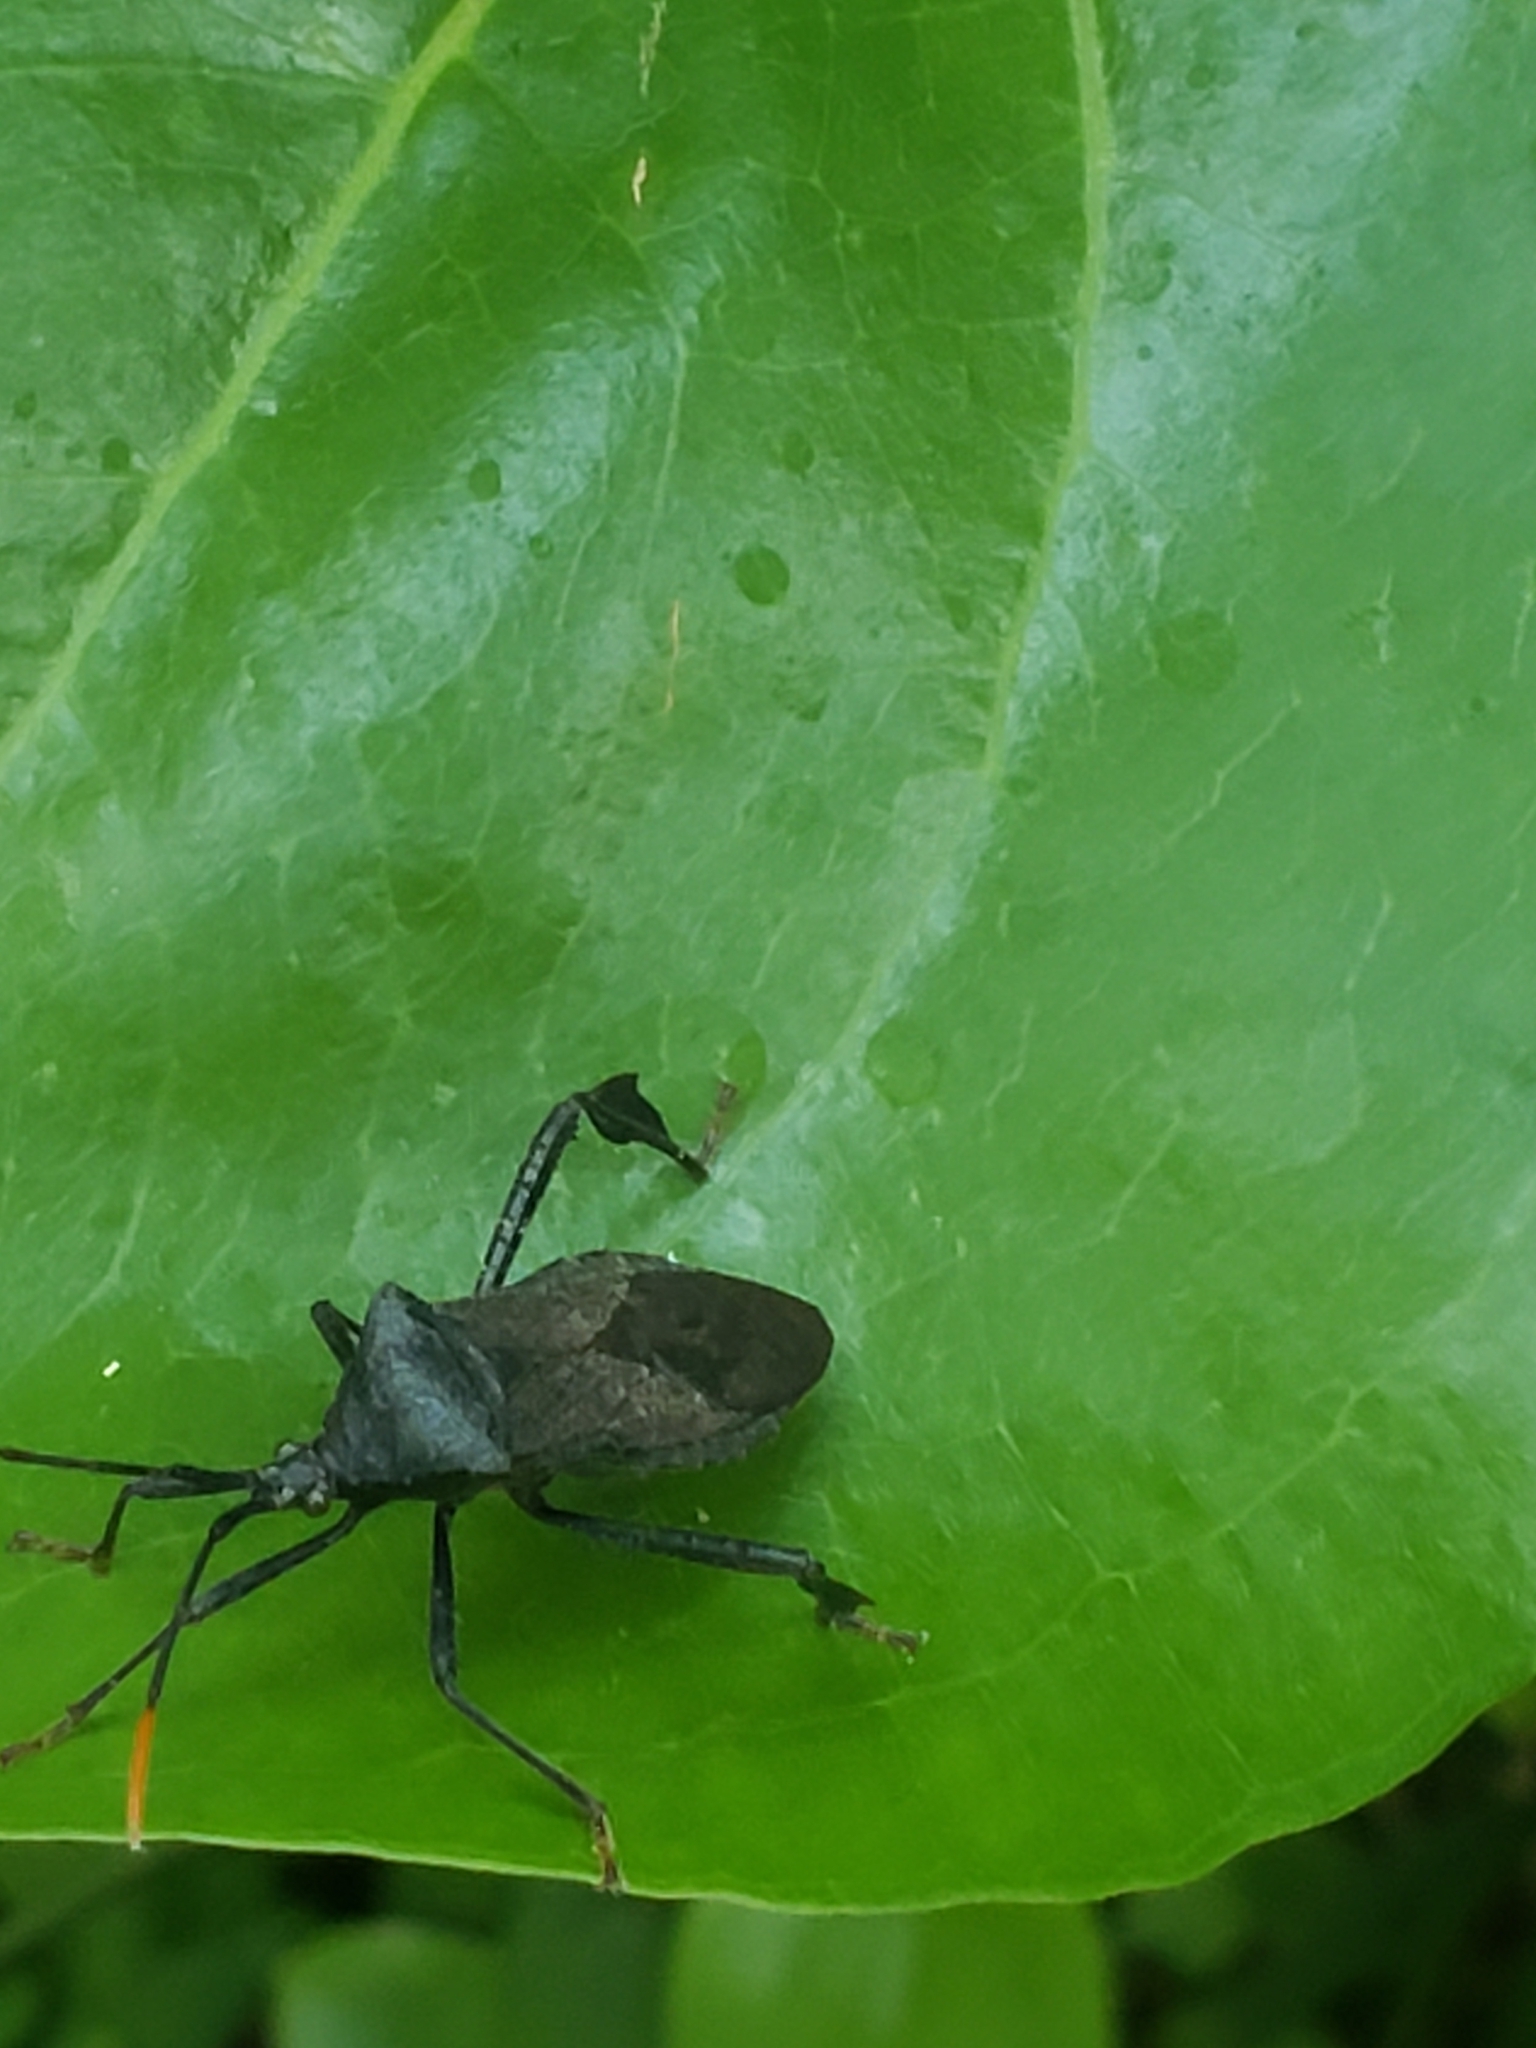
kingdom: Animalia
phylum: Arthropoda
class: Insecta
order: Hemiptera
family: Coreidae
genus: Acanthocephala
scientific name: Acanthocephala terminalis
